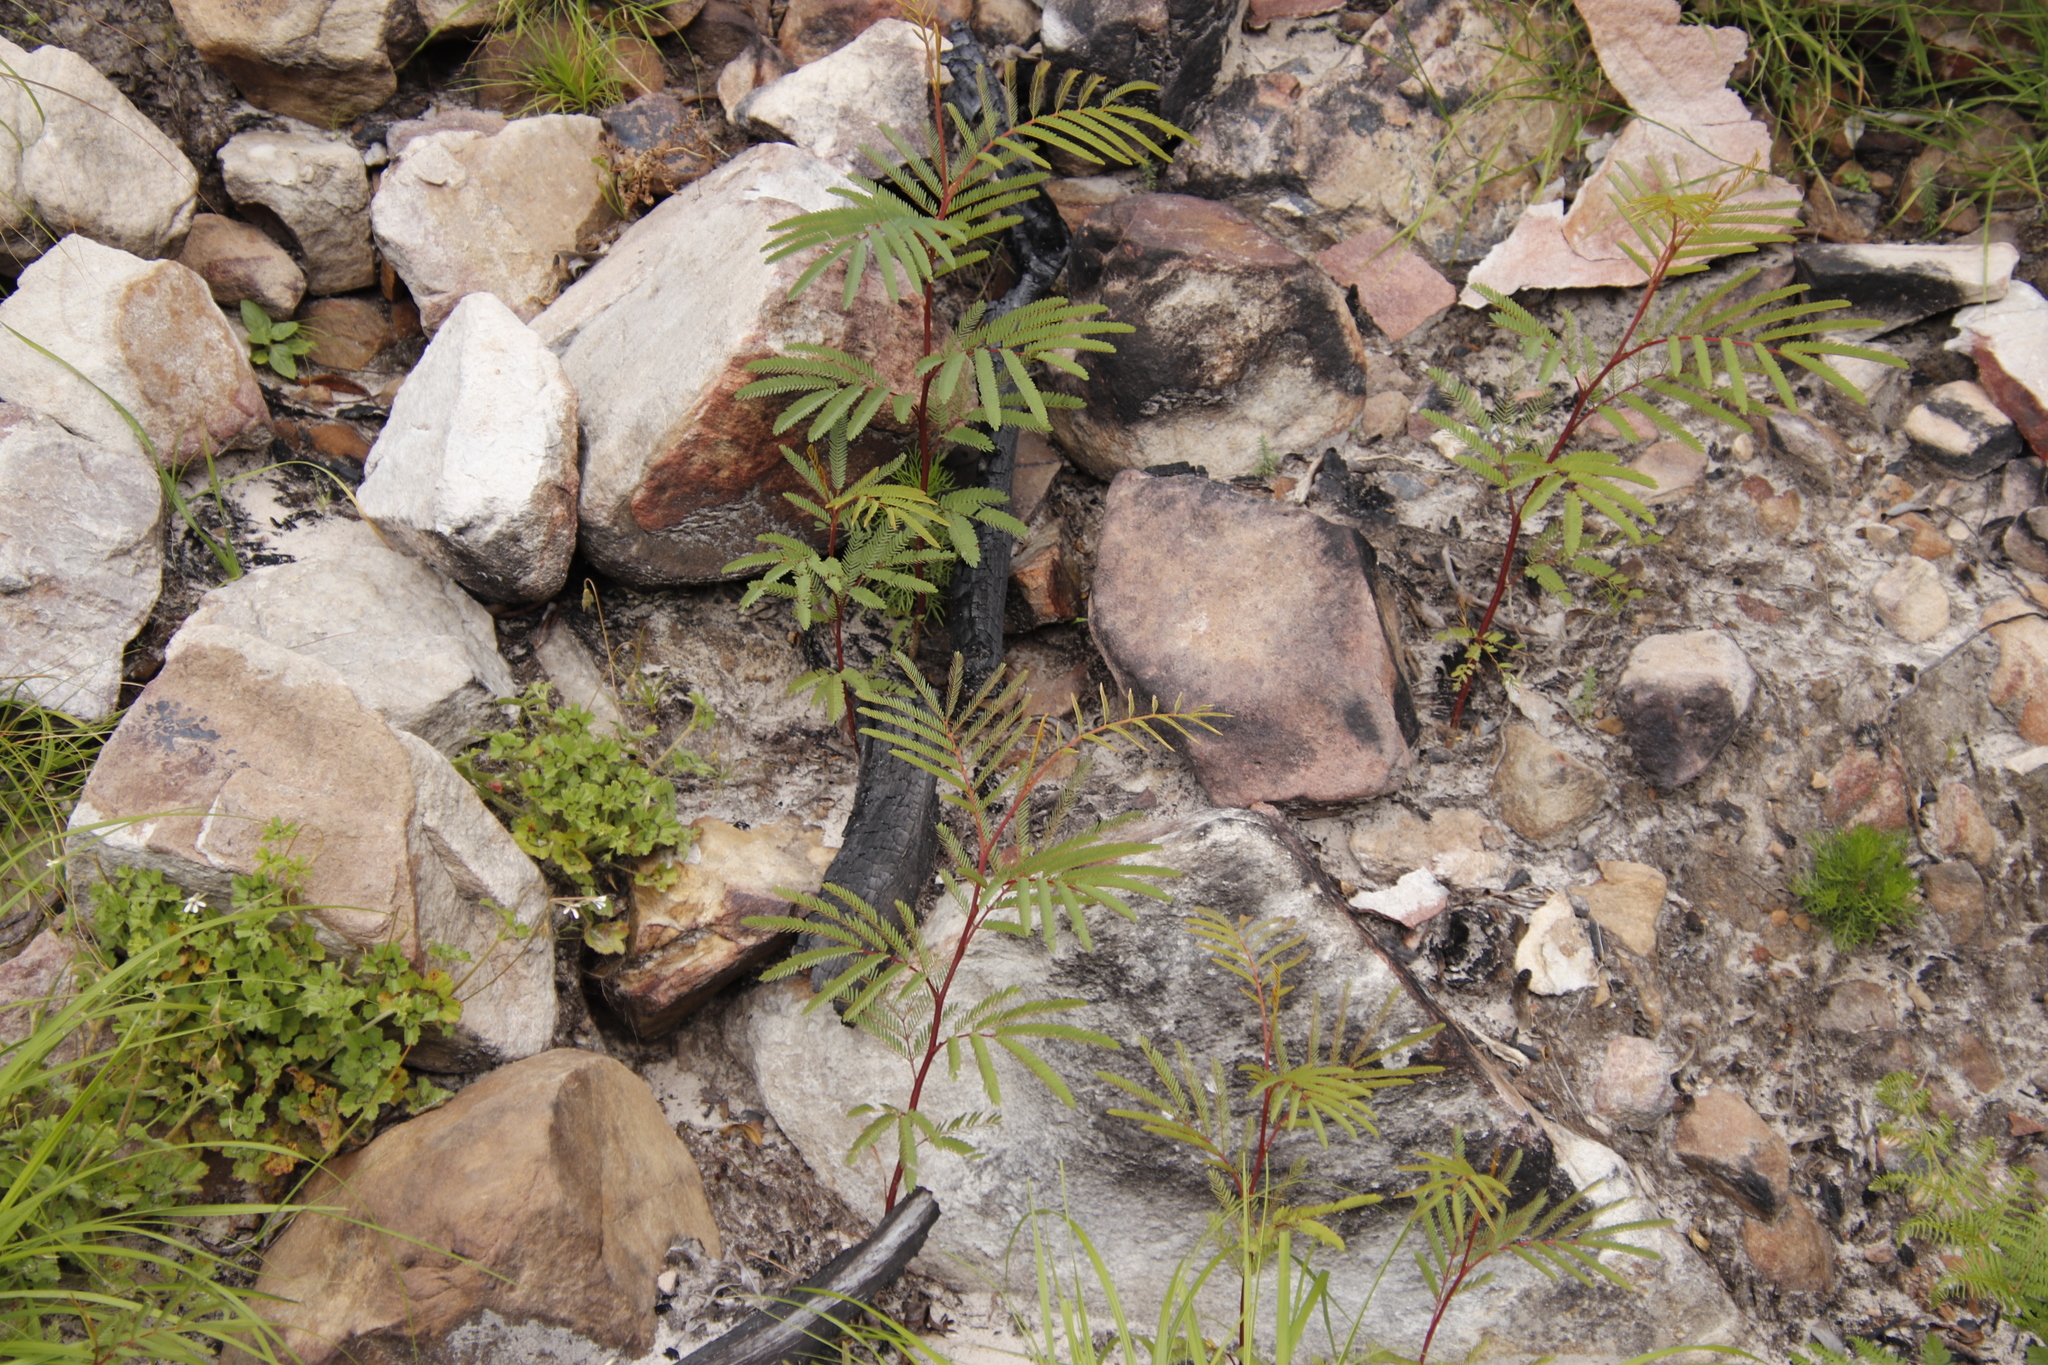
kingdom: Plantae
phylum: Tracheophyta
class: Magnoliopsida
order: Fabales
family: Fabaceae
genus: Acacia
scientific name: Acacia mearnsii
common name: Black wattle
